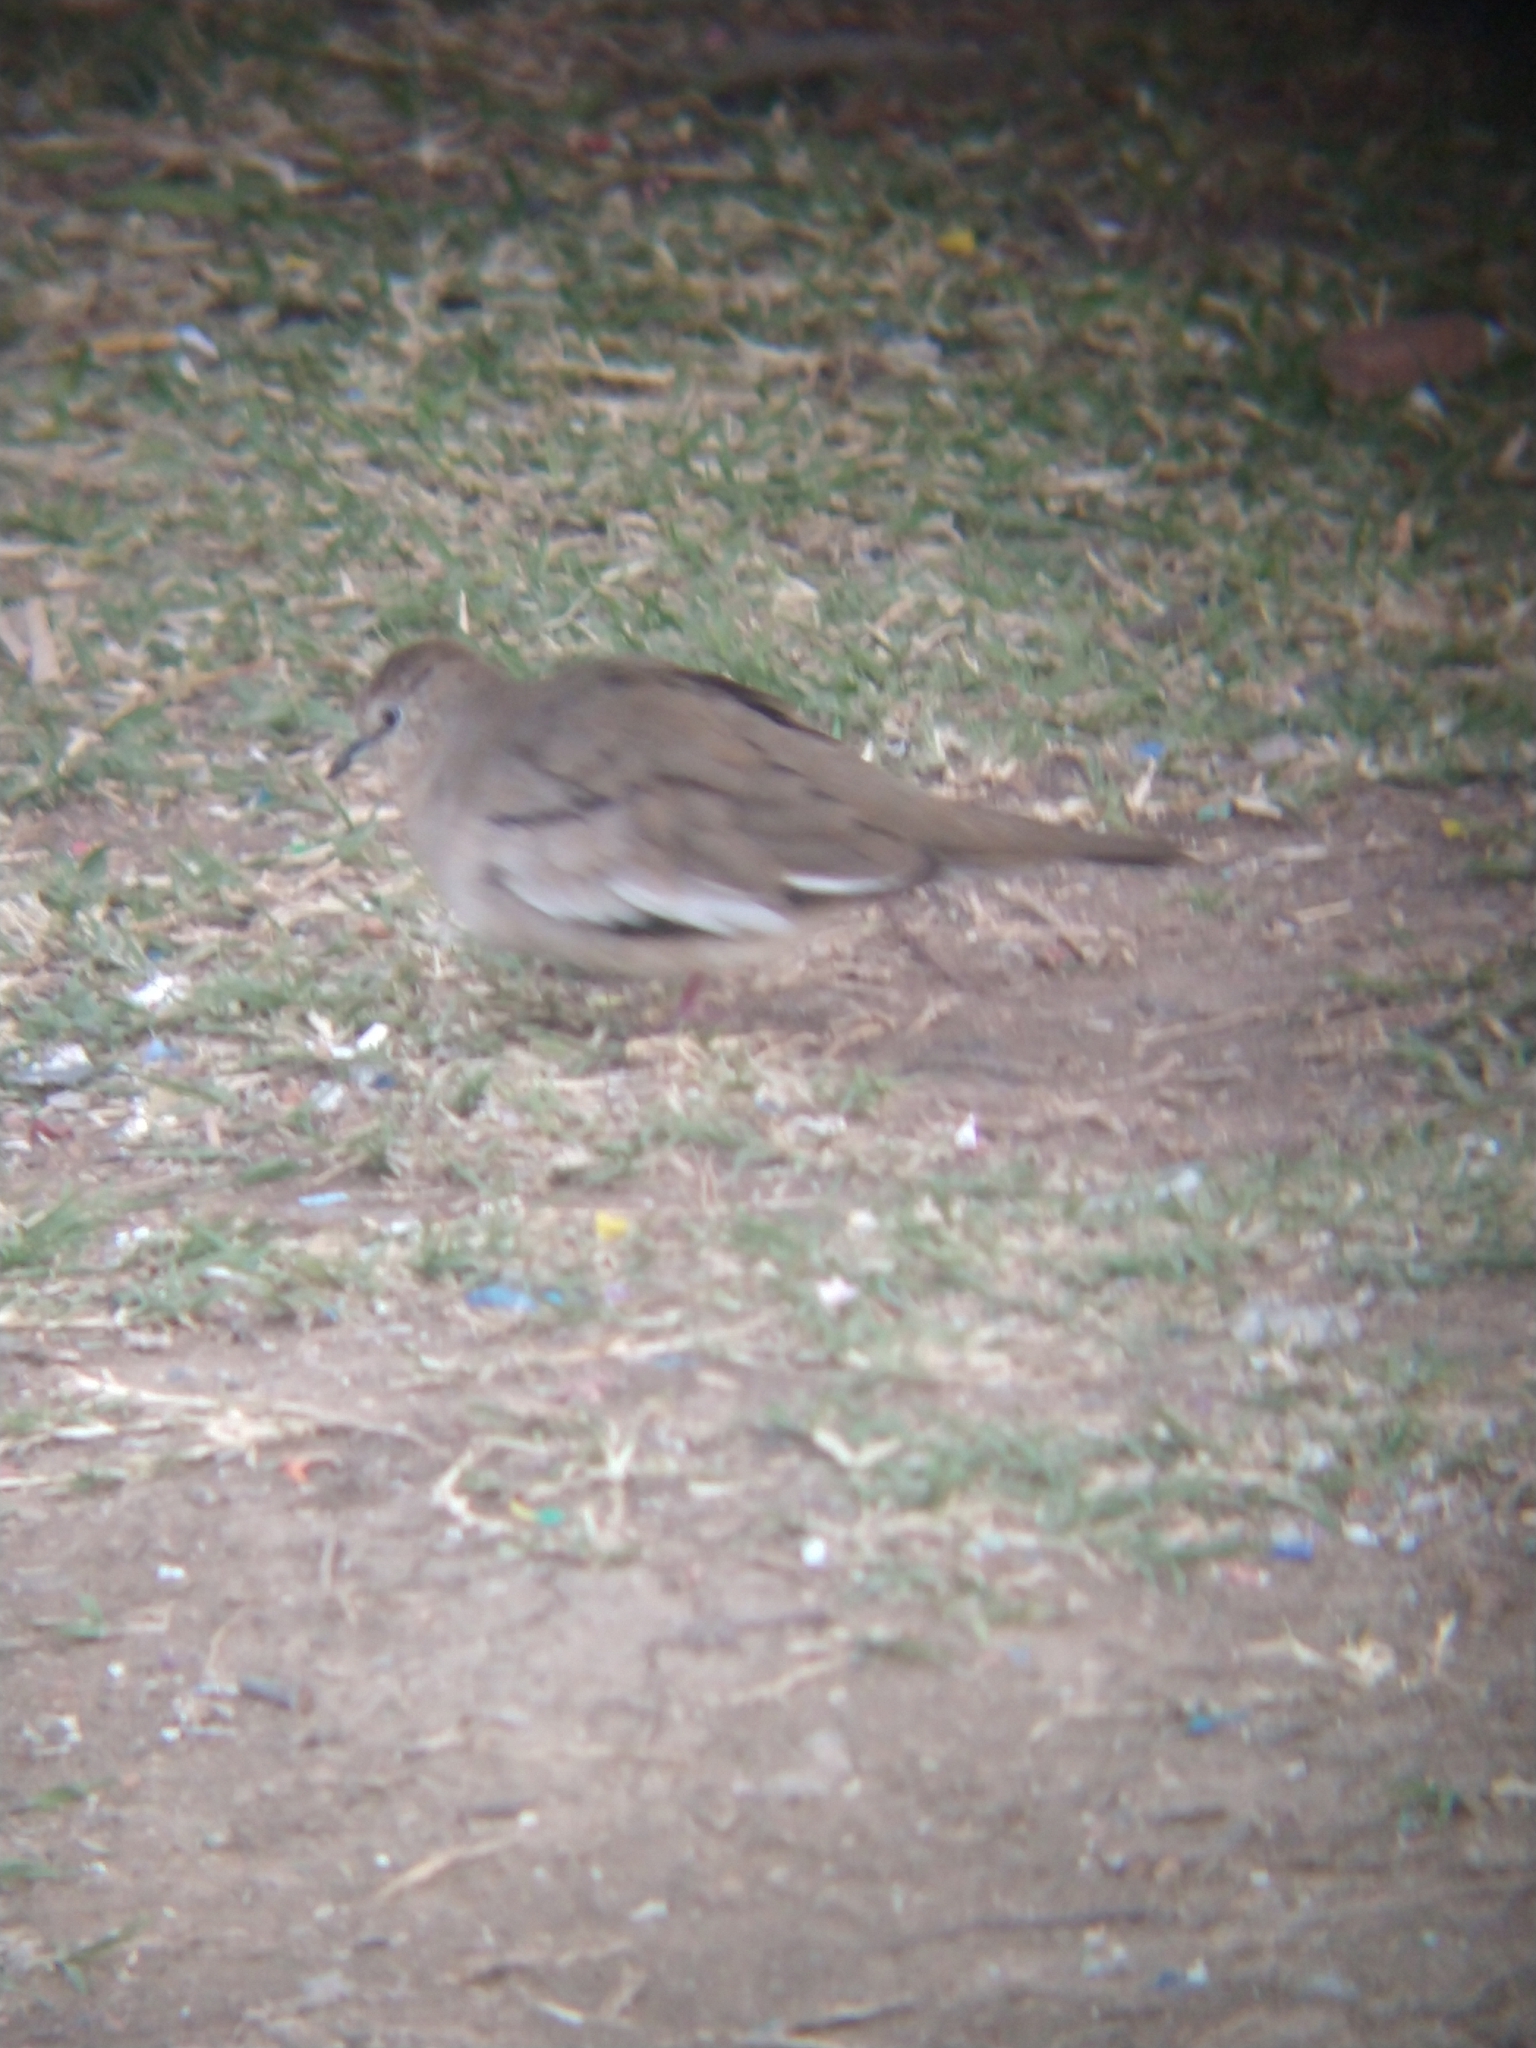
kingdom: Animalia
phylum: Chordata
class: Aves
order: Columbiformes
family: Columbidae
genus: Columbina
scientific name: Columbina picui
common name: Picui ground dove
